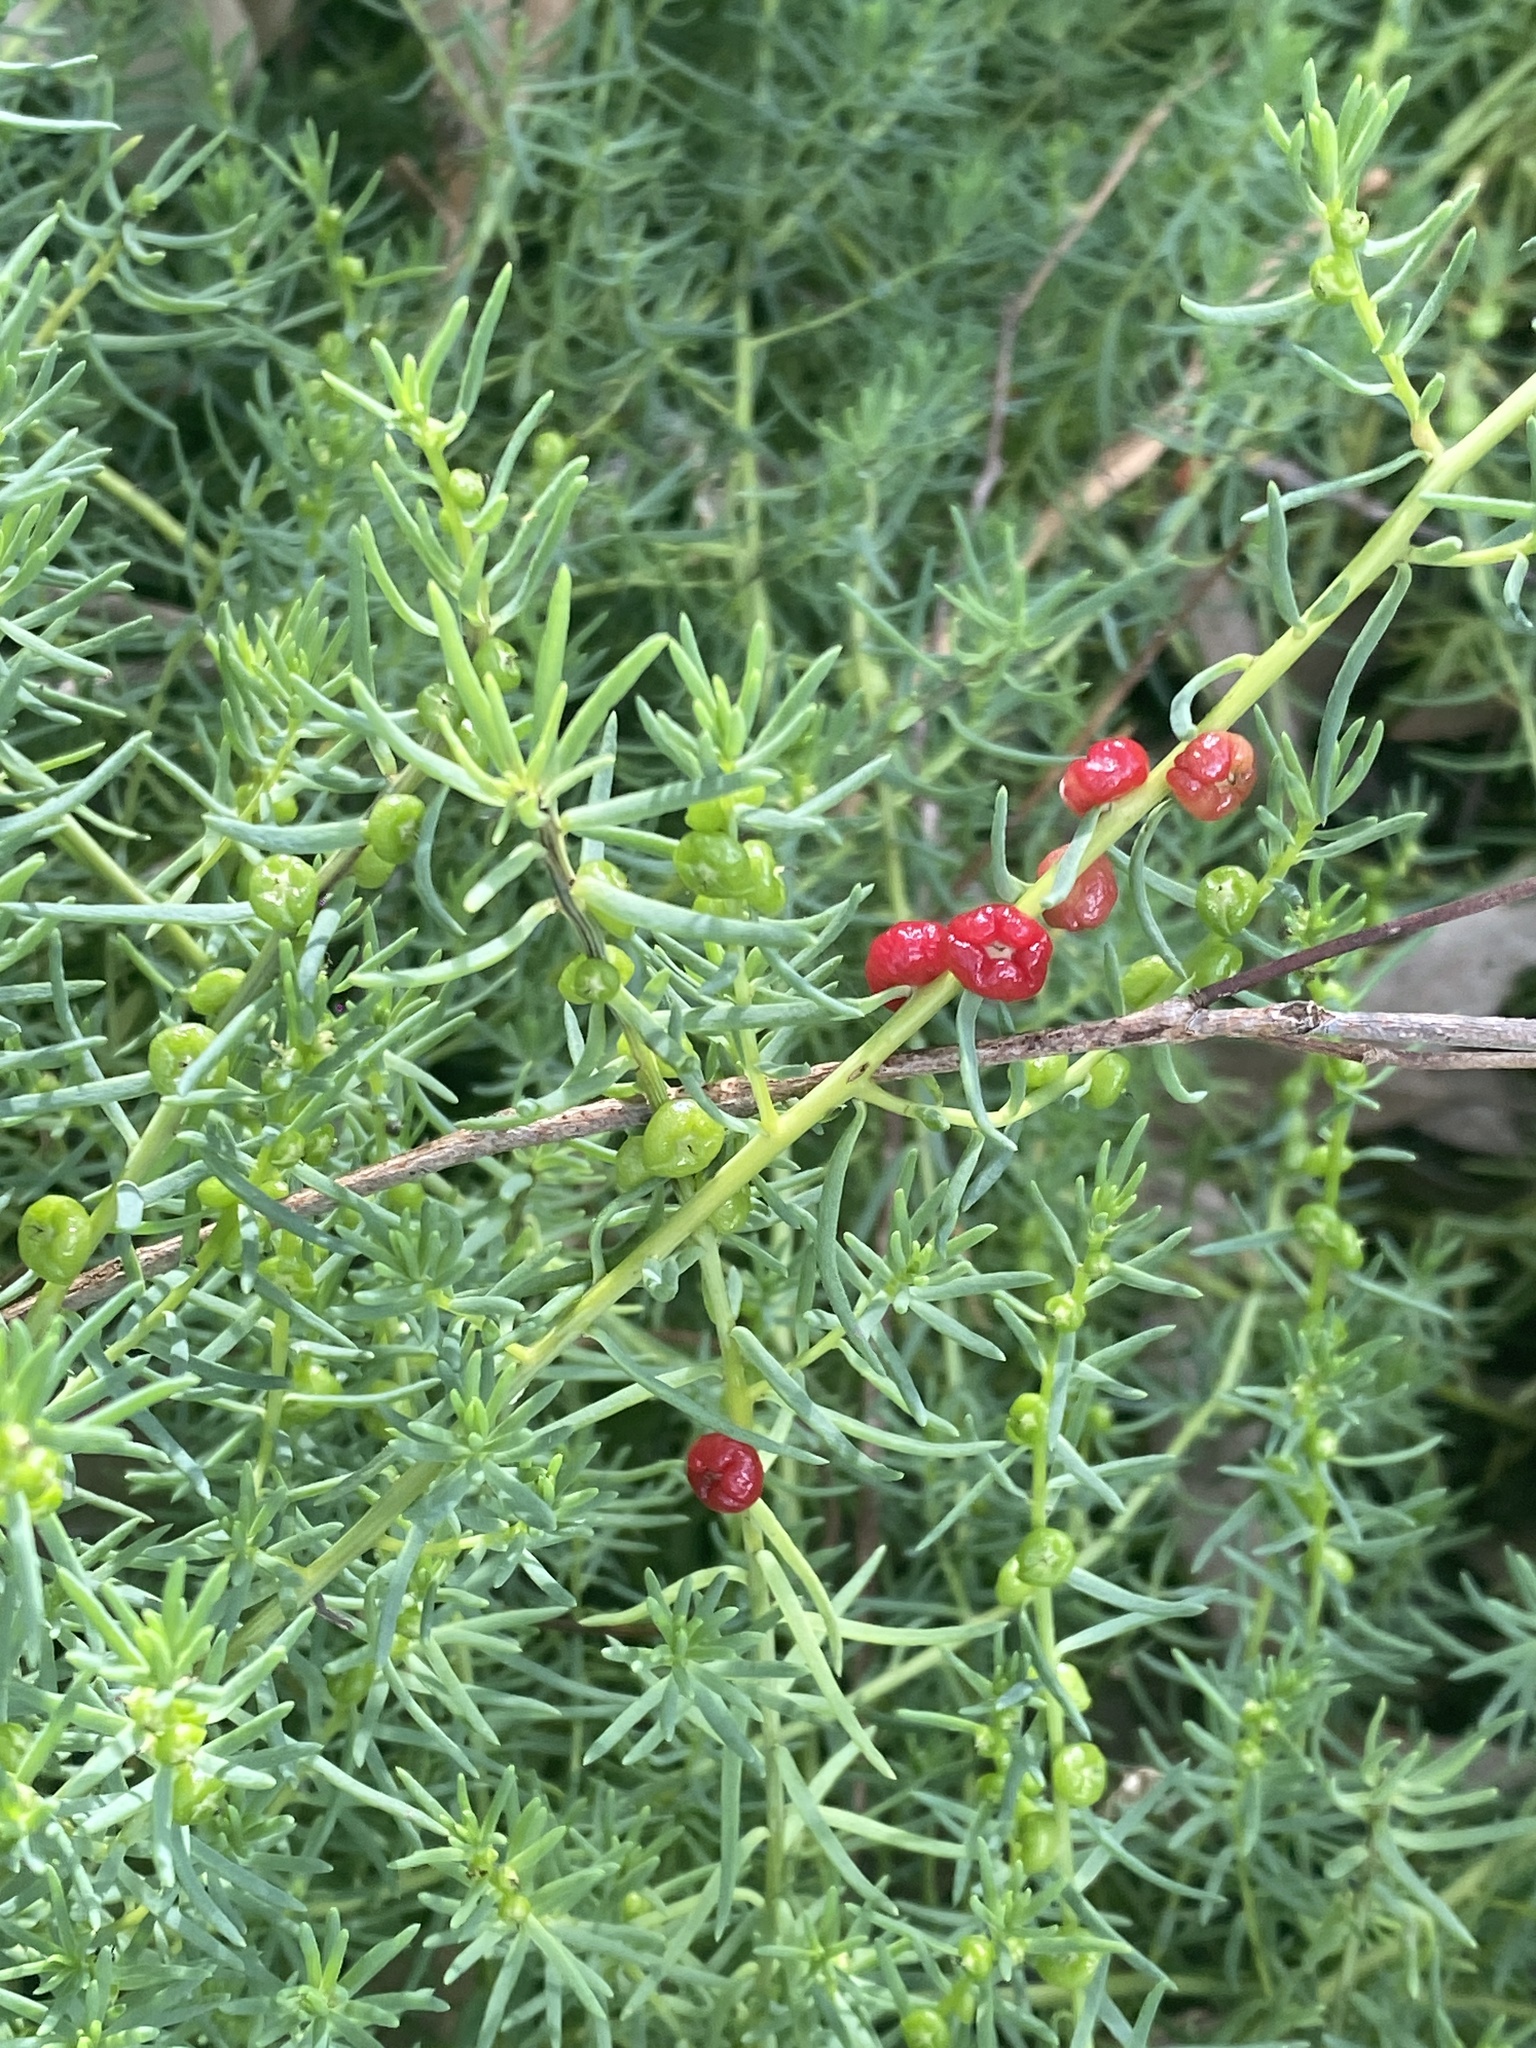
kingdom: Plantae
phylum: Tracheophyta
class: Magnoliopsida
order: Caryophyllales
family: Amaranthaceae
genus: Enchylaena
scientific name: Enchylaena tomentosa
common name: Ruby saltbush
